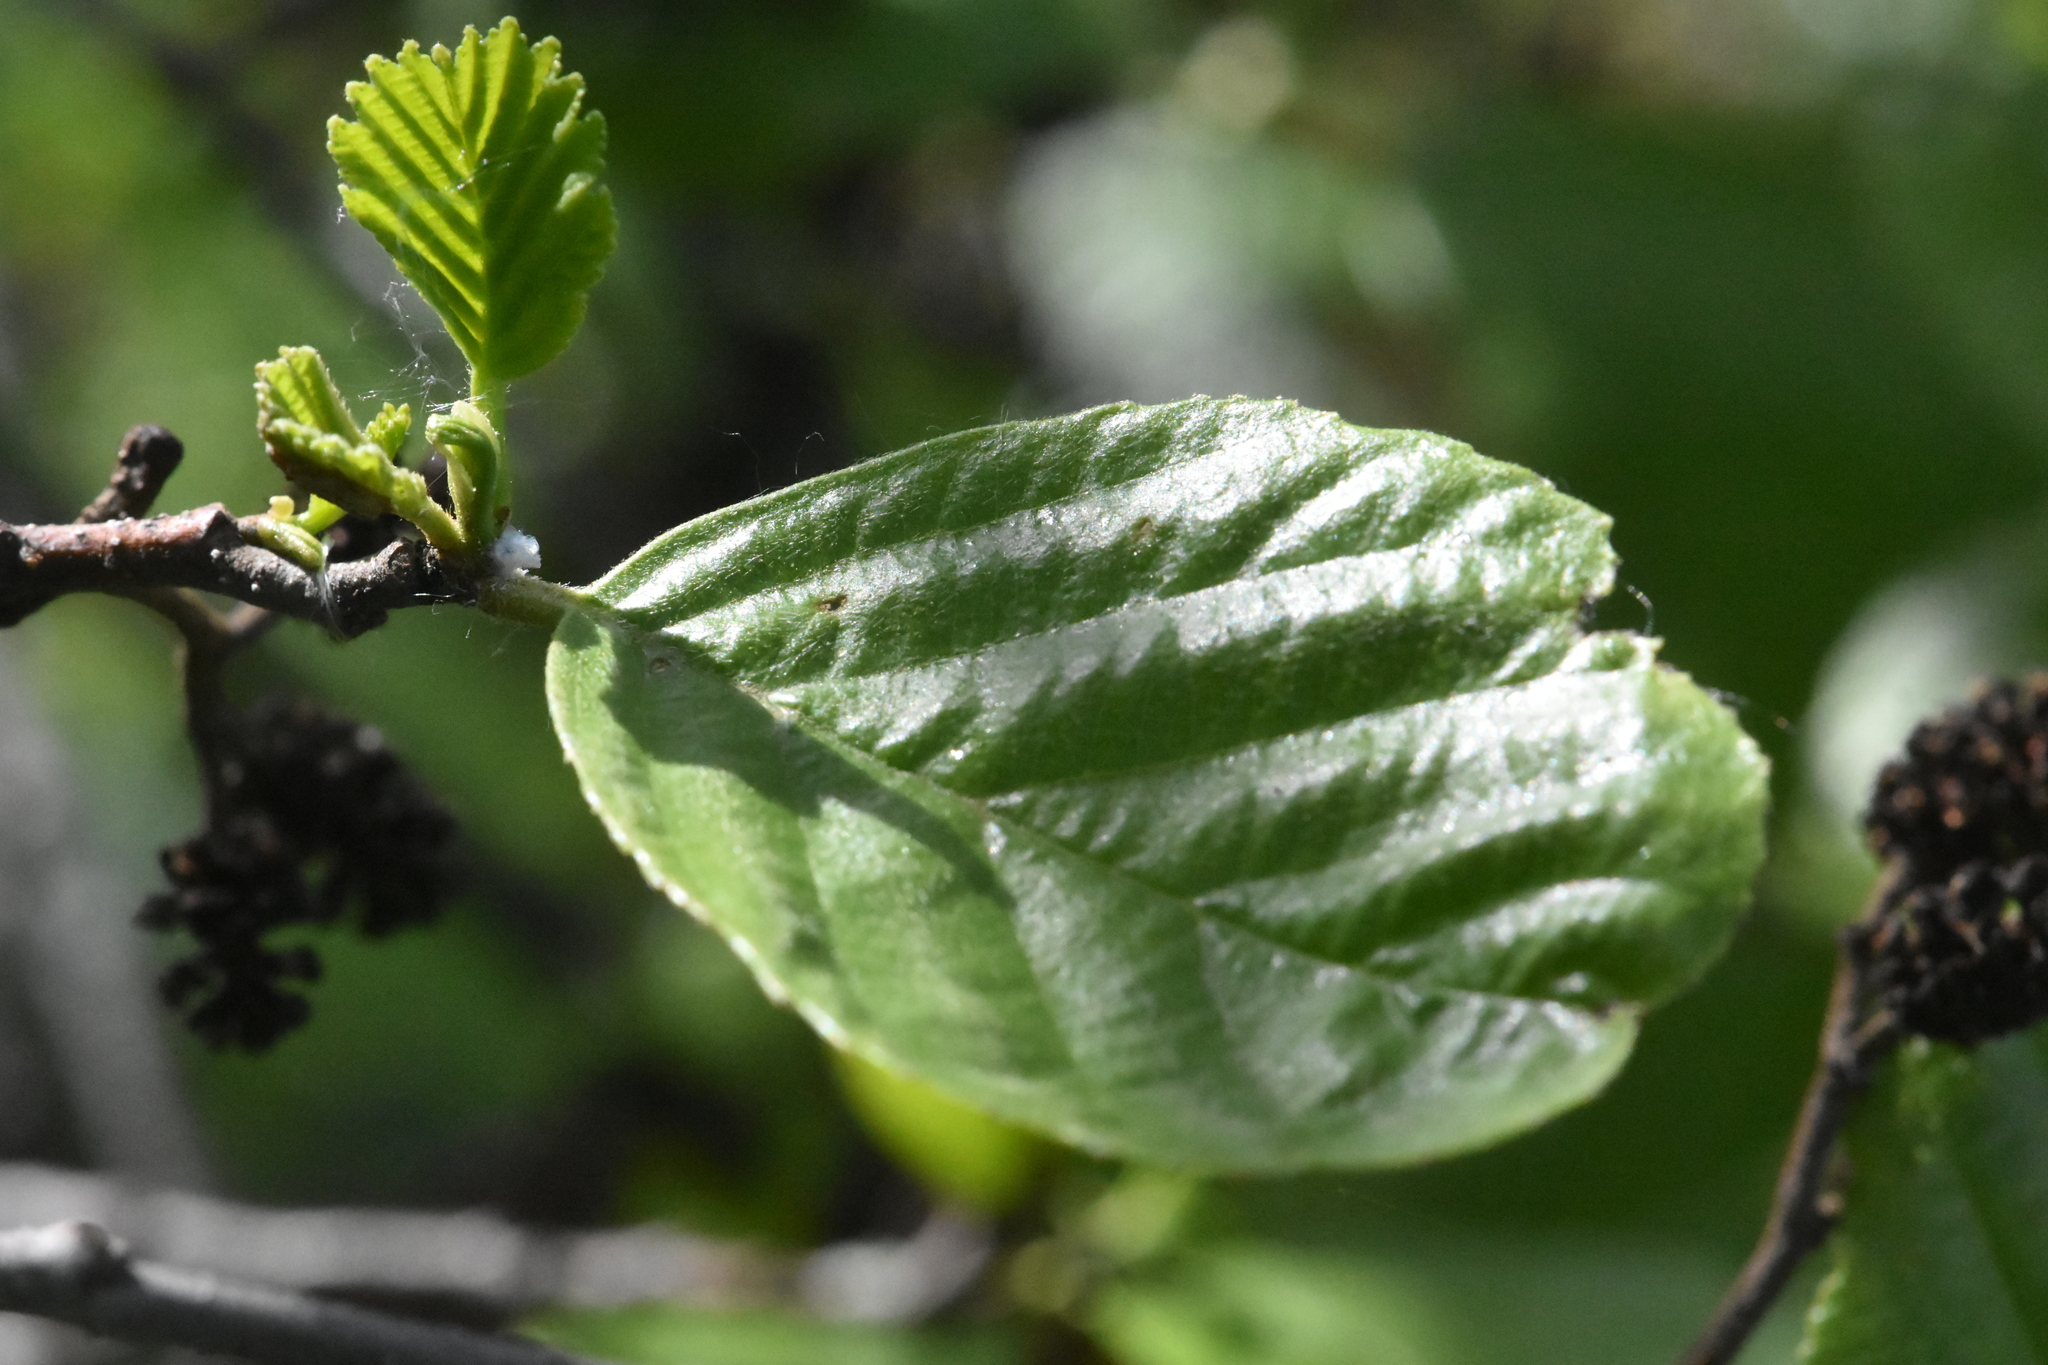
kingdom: Plantae
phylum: Tracheophyta
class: Magnoliopsida
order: Fagales
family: Betulaceae
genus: Alnus
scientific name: Alnus glutinosa
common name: Black alder
